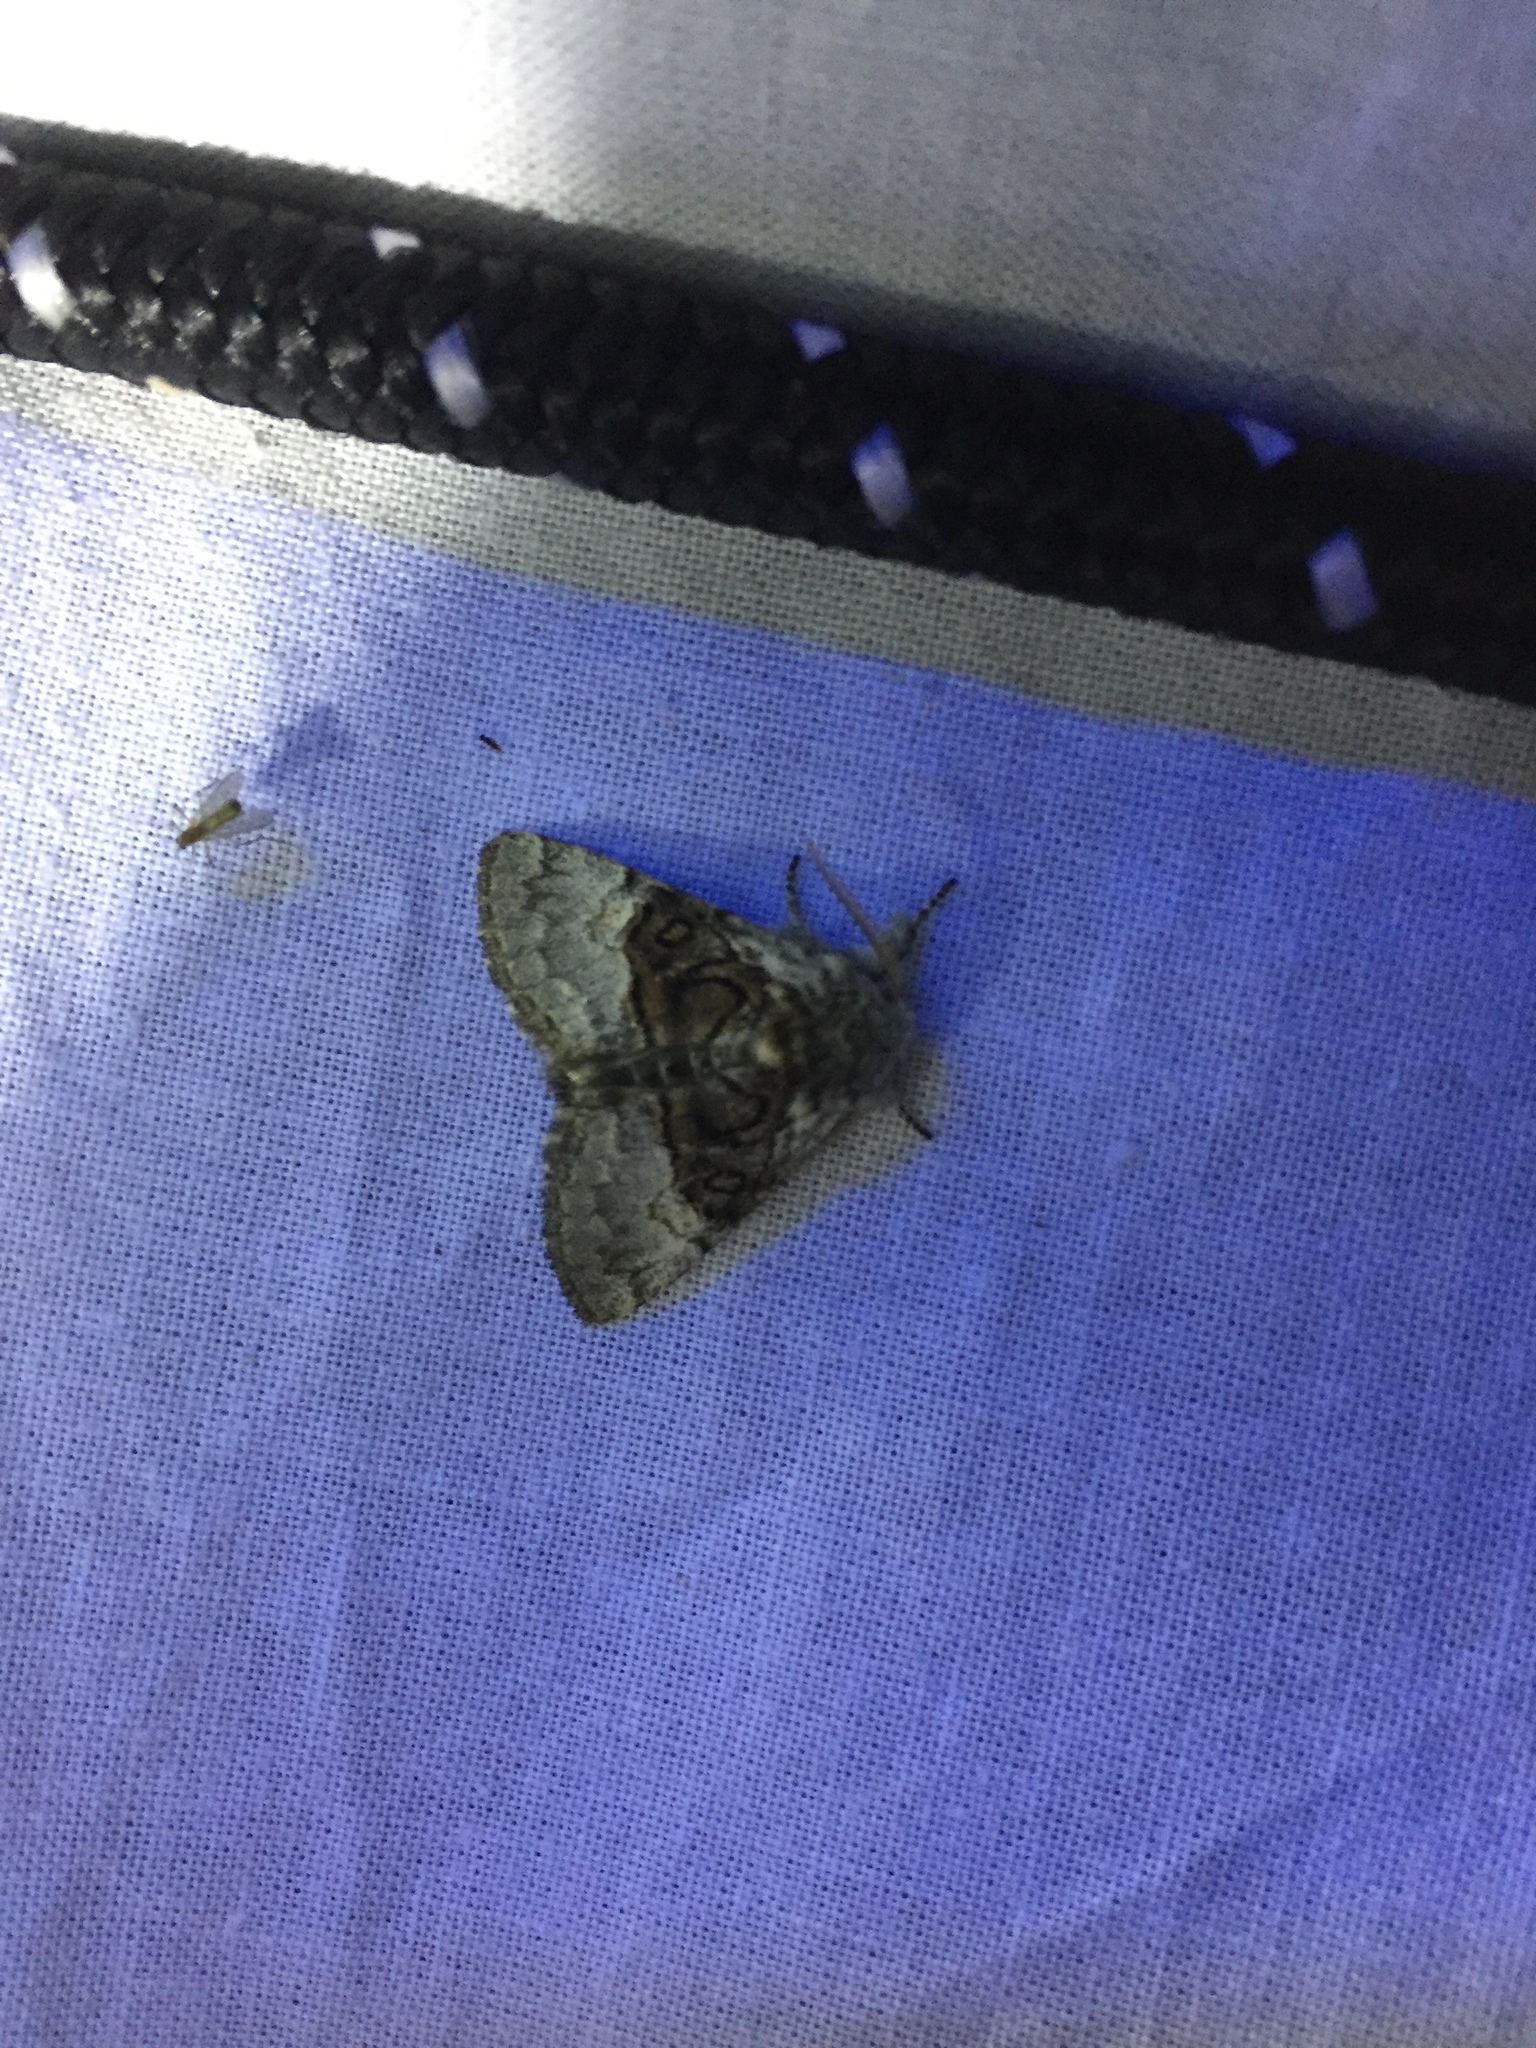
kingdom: Animalia
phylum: Arthropoda
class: Insecta
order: Lepidoptera
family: Noctuidae
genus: Colocasia
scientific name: Colocasia coryli
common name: Nut-tree tussock
